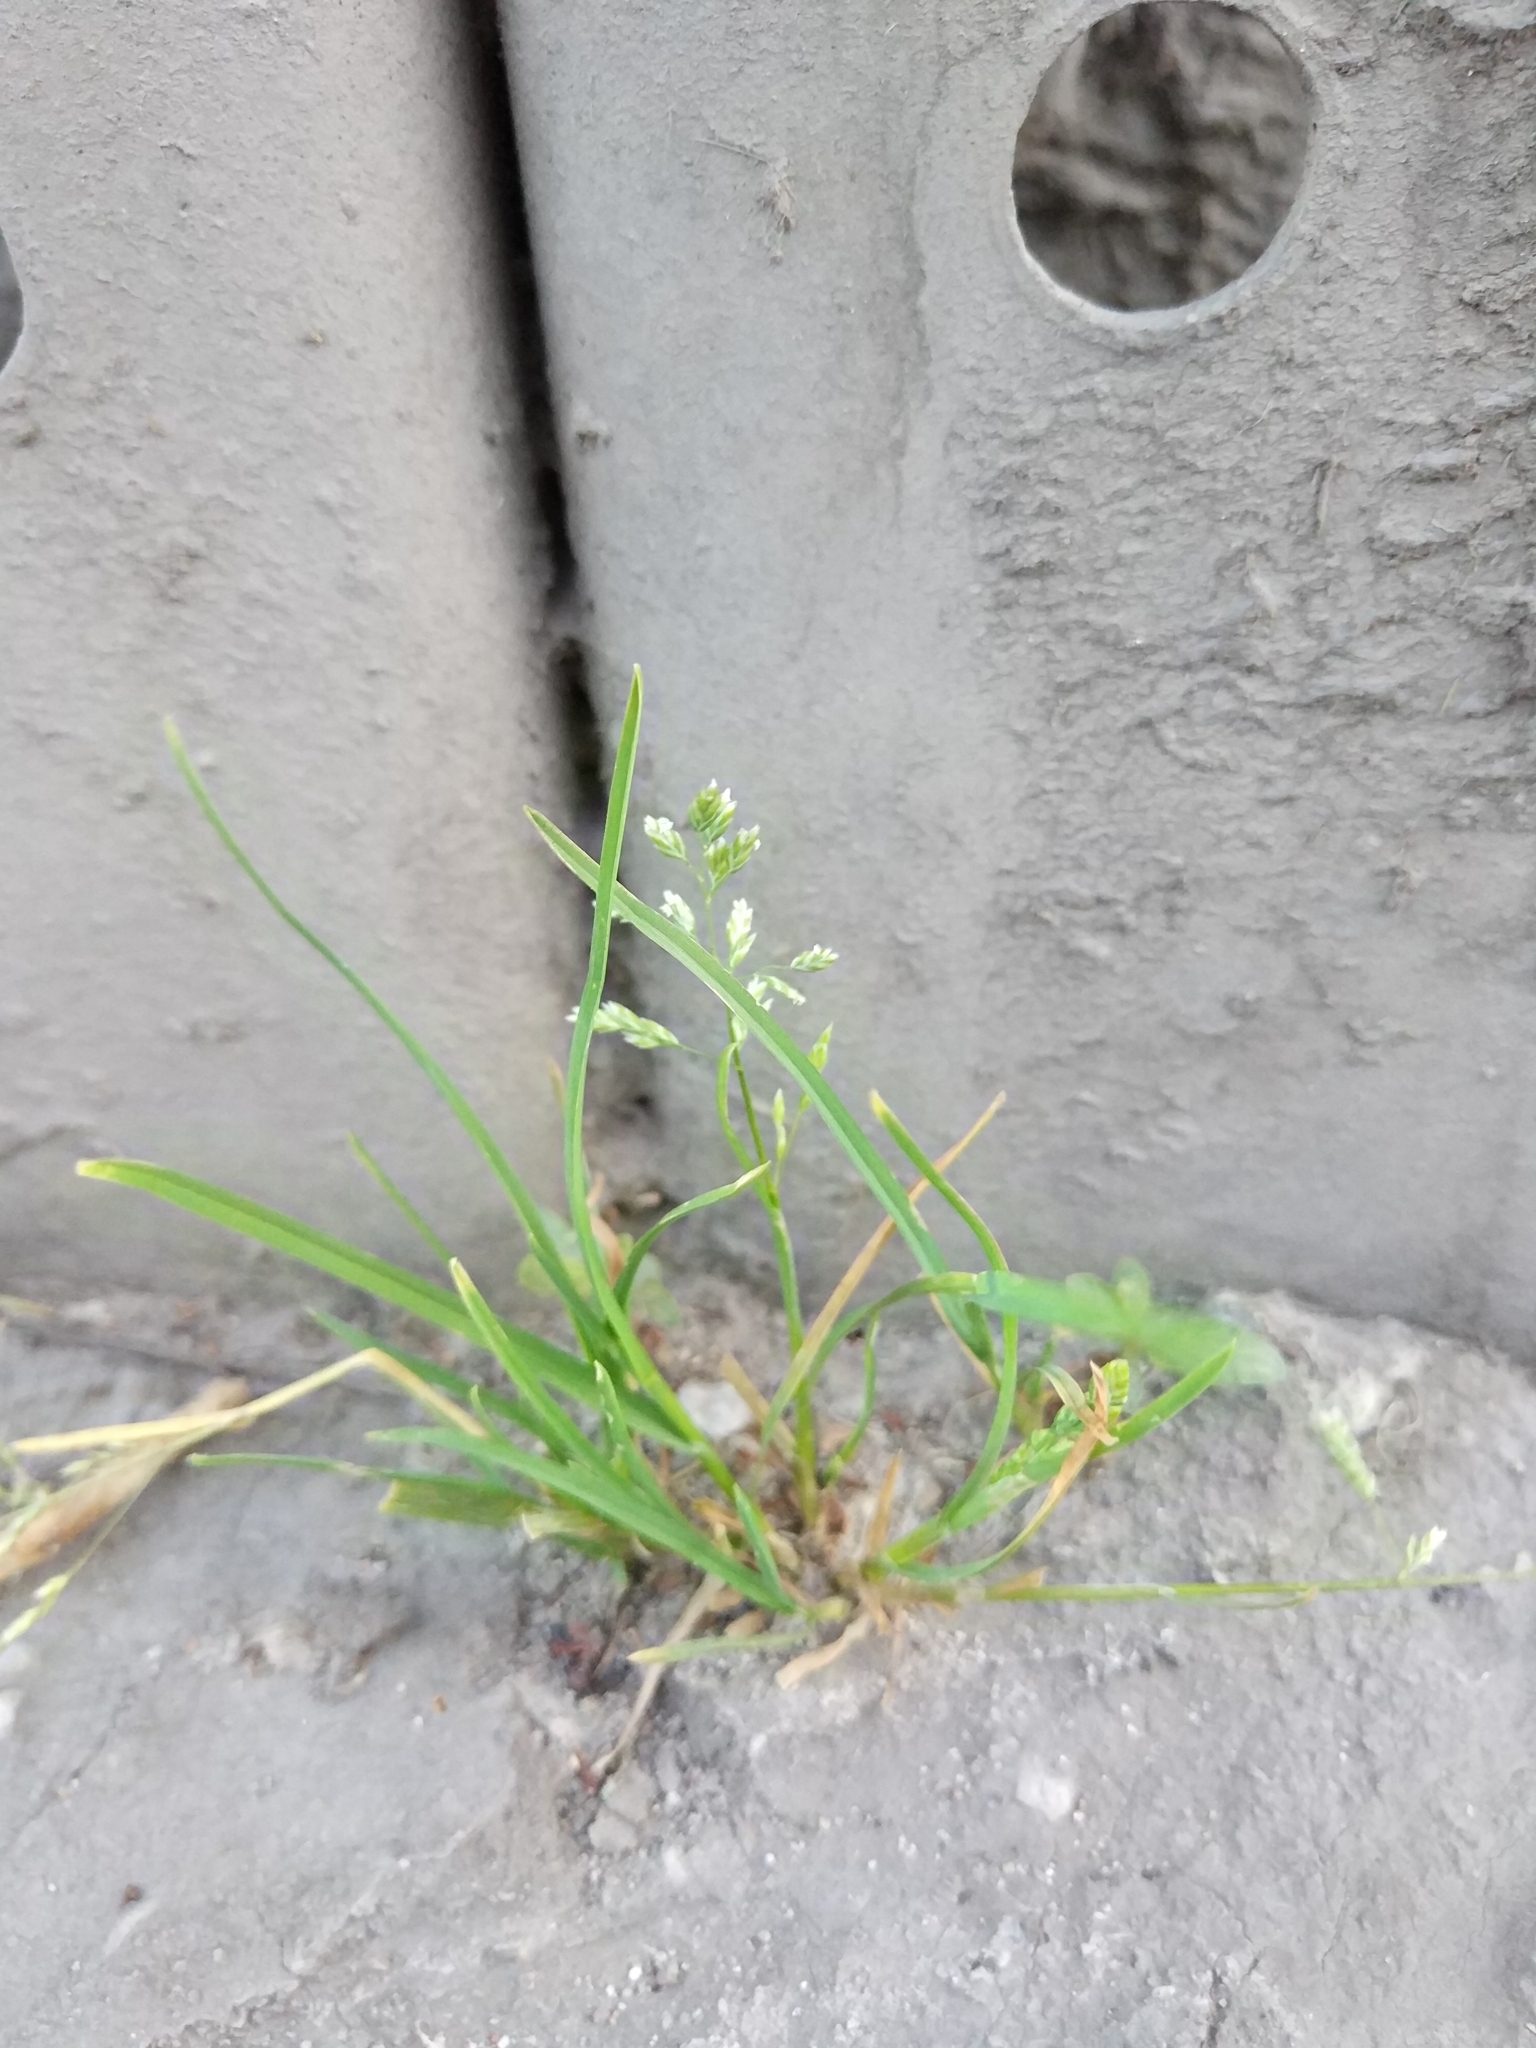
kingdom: Plantae
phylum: Tracheophyta
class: Liliopsida
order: Poales
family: Poaceae
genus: Poa
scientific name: Poa annua
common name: Annual bluegrass
